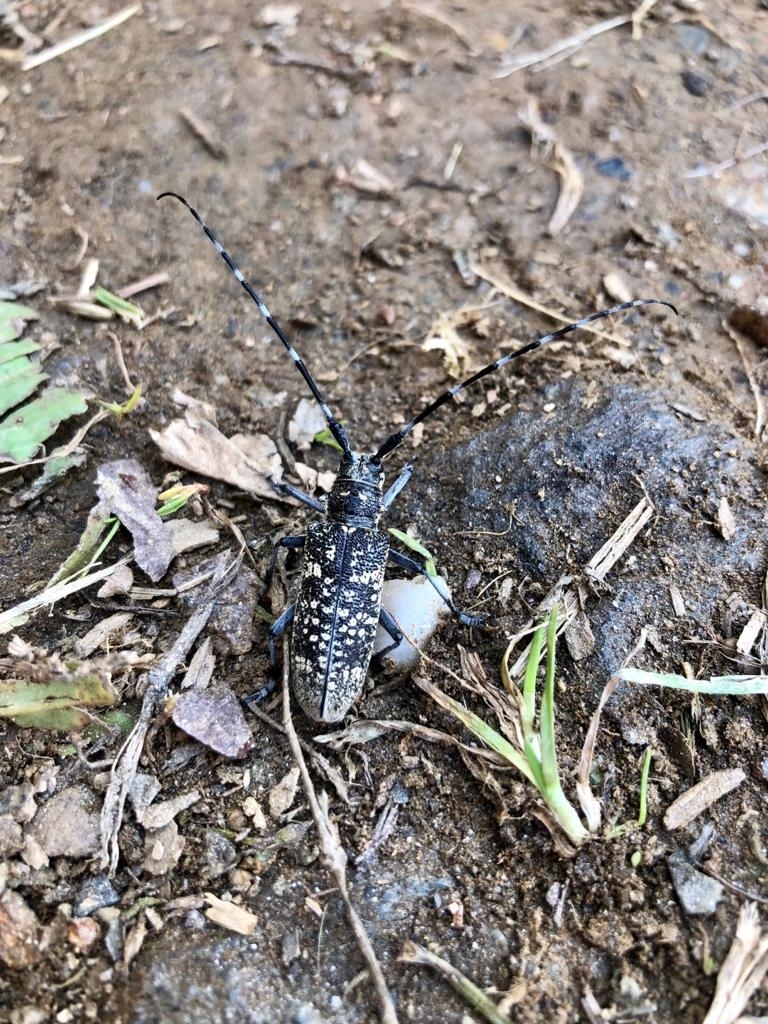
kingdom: Animalia
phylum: Arthropoda
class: Insecta
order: Coleoptera
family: Cerambycidae
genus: Monochamus
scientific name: Monochamus sutor
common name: Pine sawyer
